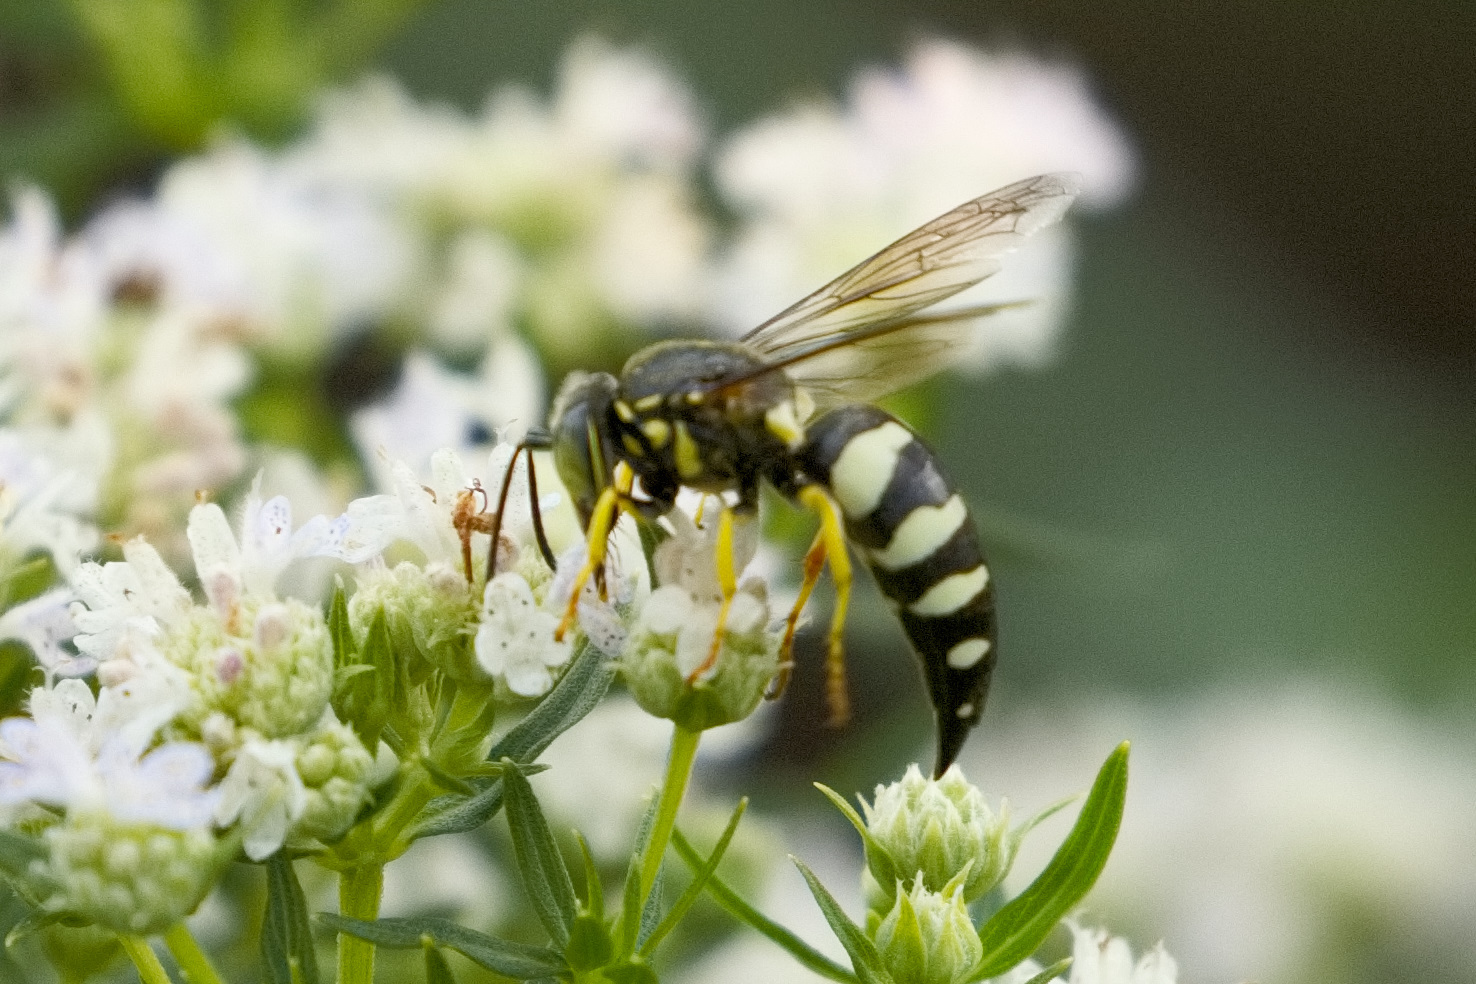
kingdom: Animalia
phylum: Arthropoda
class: Insecta
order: Hymenoptera
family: Crabronidae
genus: Bicyrtes
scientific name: Bicyrtes quadrifasciatus
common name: Four-banded stink bug hunter wasp
